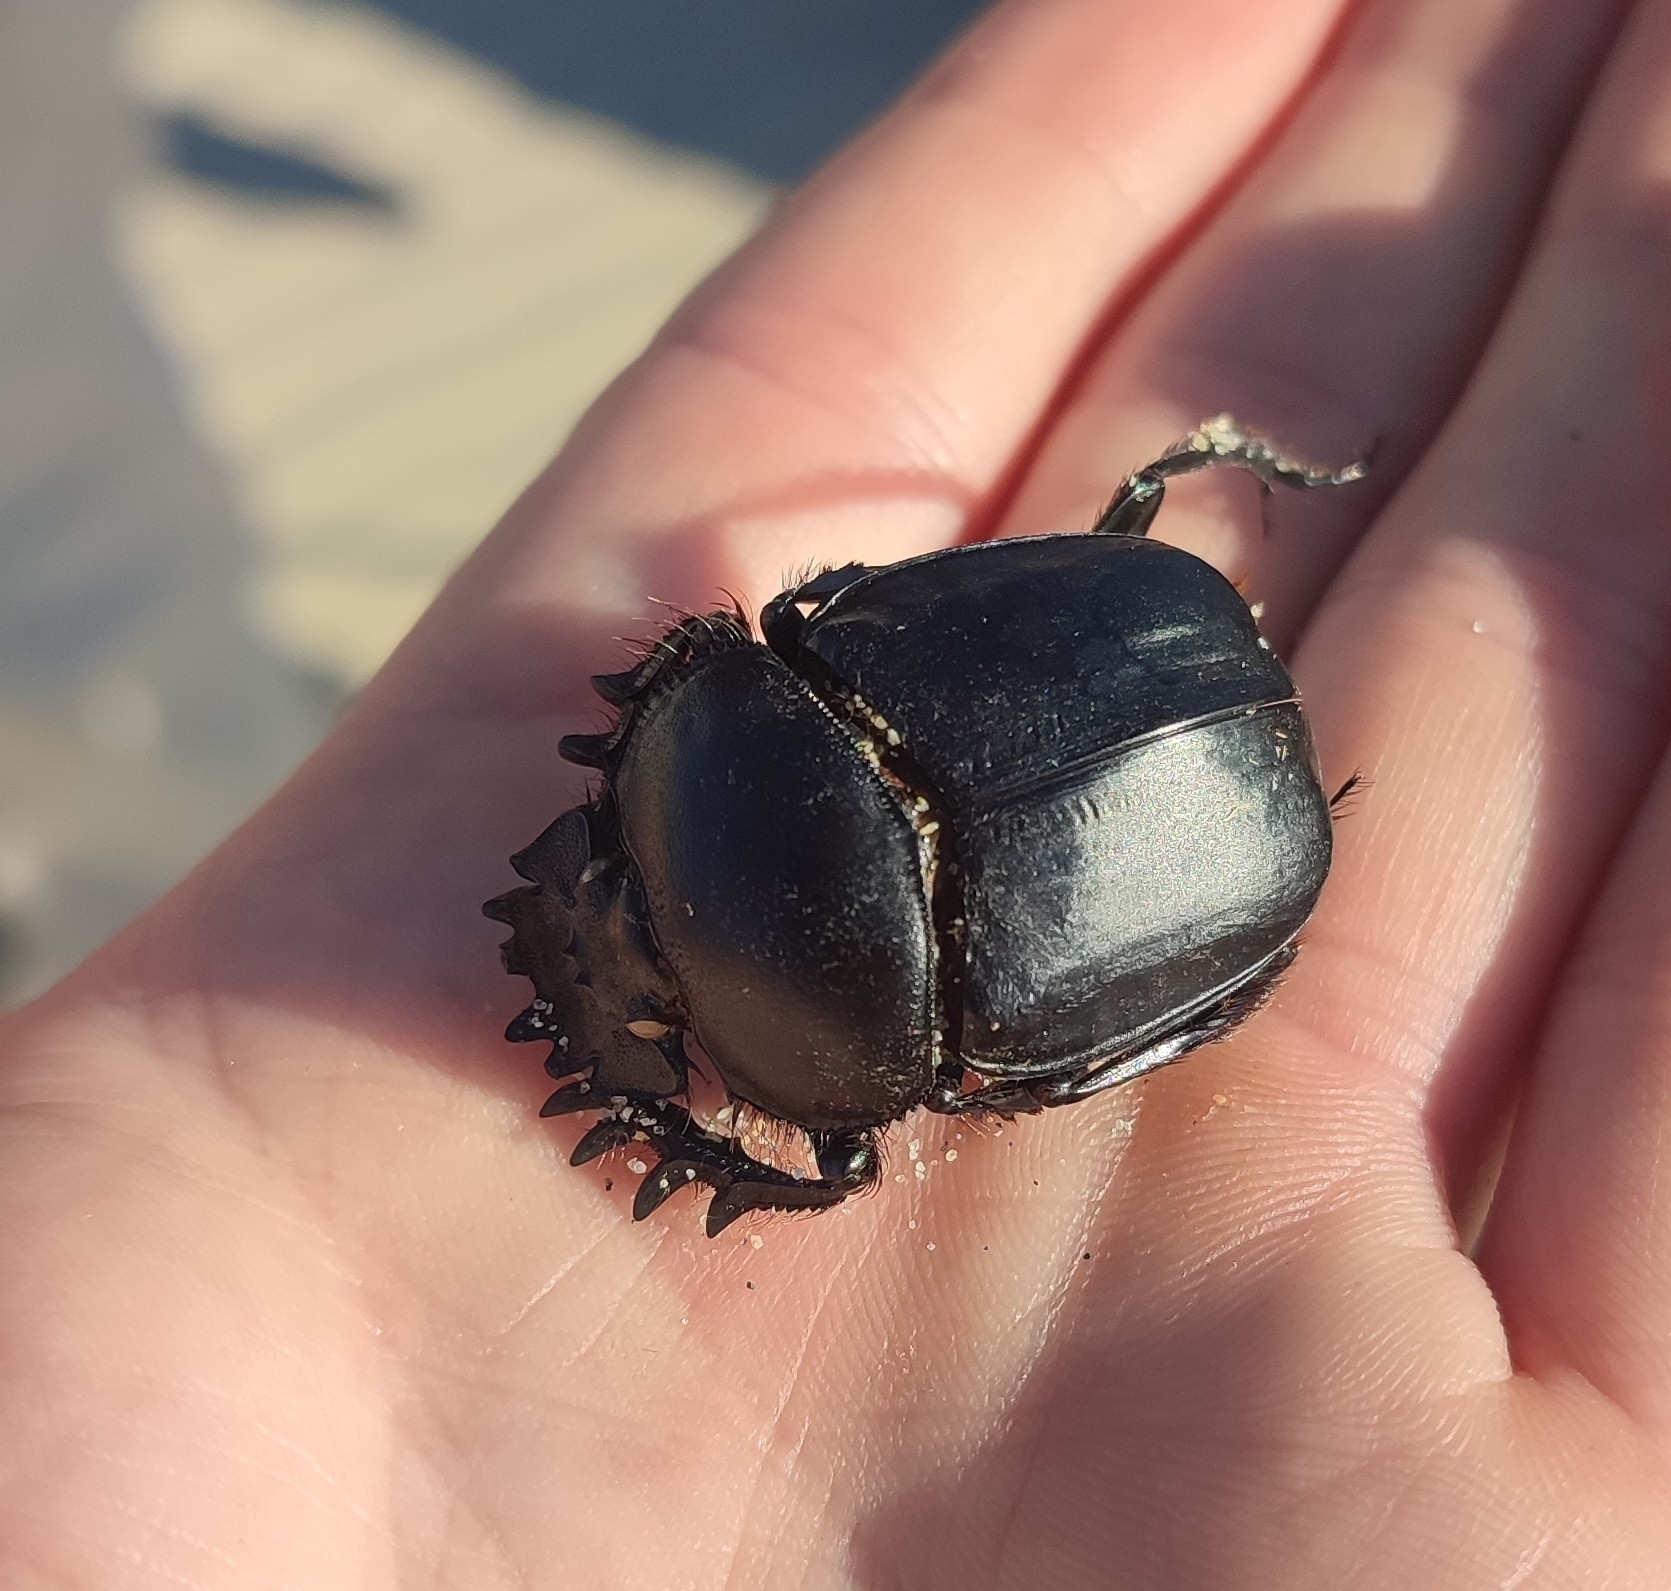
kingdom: Animalia
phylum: Arthropoda
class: Insecta
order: Coleoptera
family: Scarabaeidae
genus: Scarabaeus
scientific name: Scarabaeus sacer
